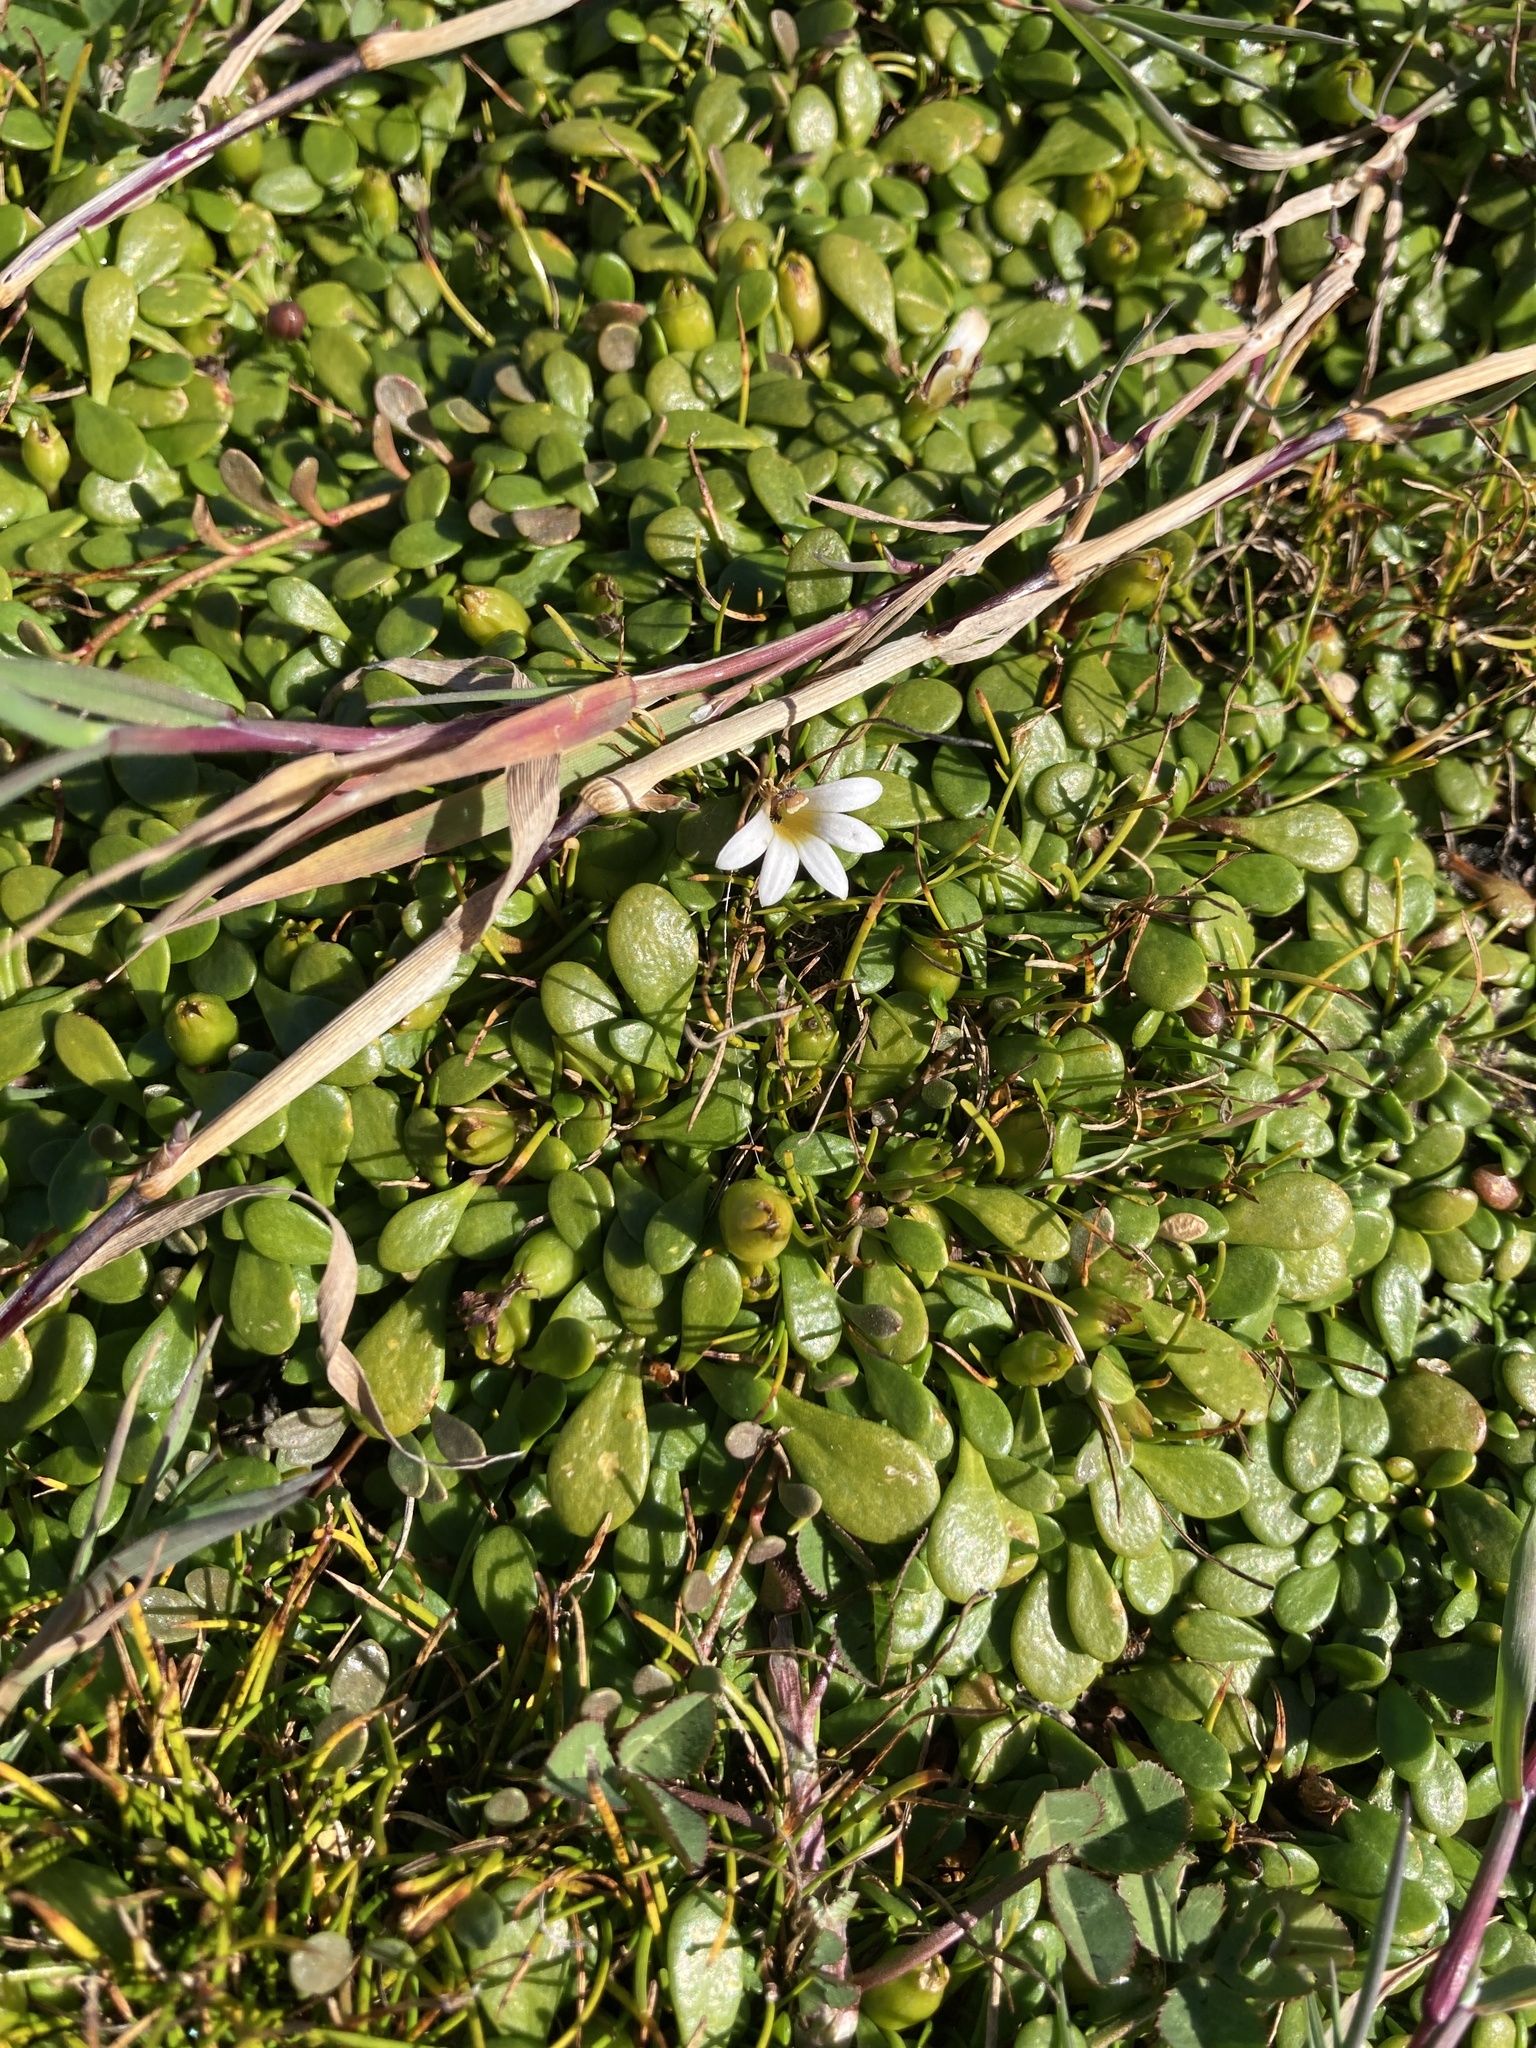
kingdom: Plantae
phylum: Tracheophyta
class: Magnoliopsida
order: Asterales
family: Goodeniaceae
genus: Goodenia
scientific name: Goodenia radicans
